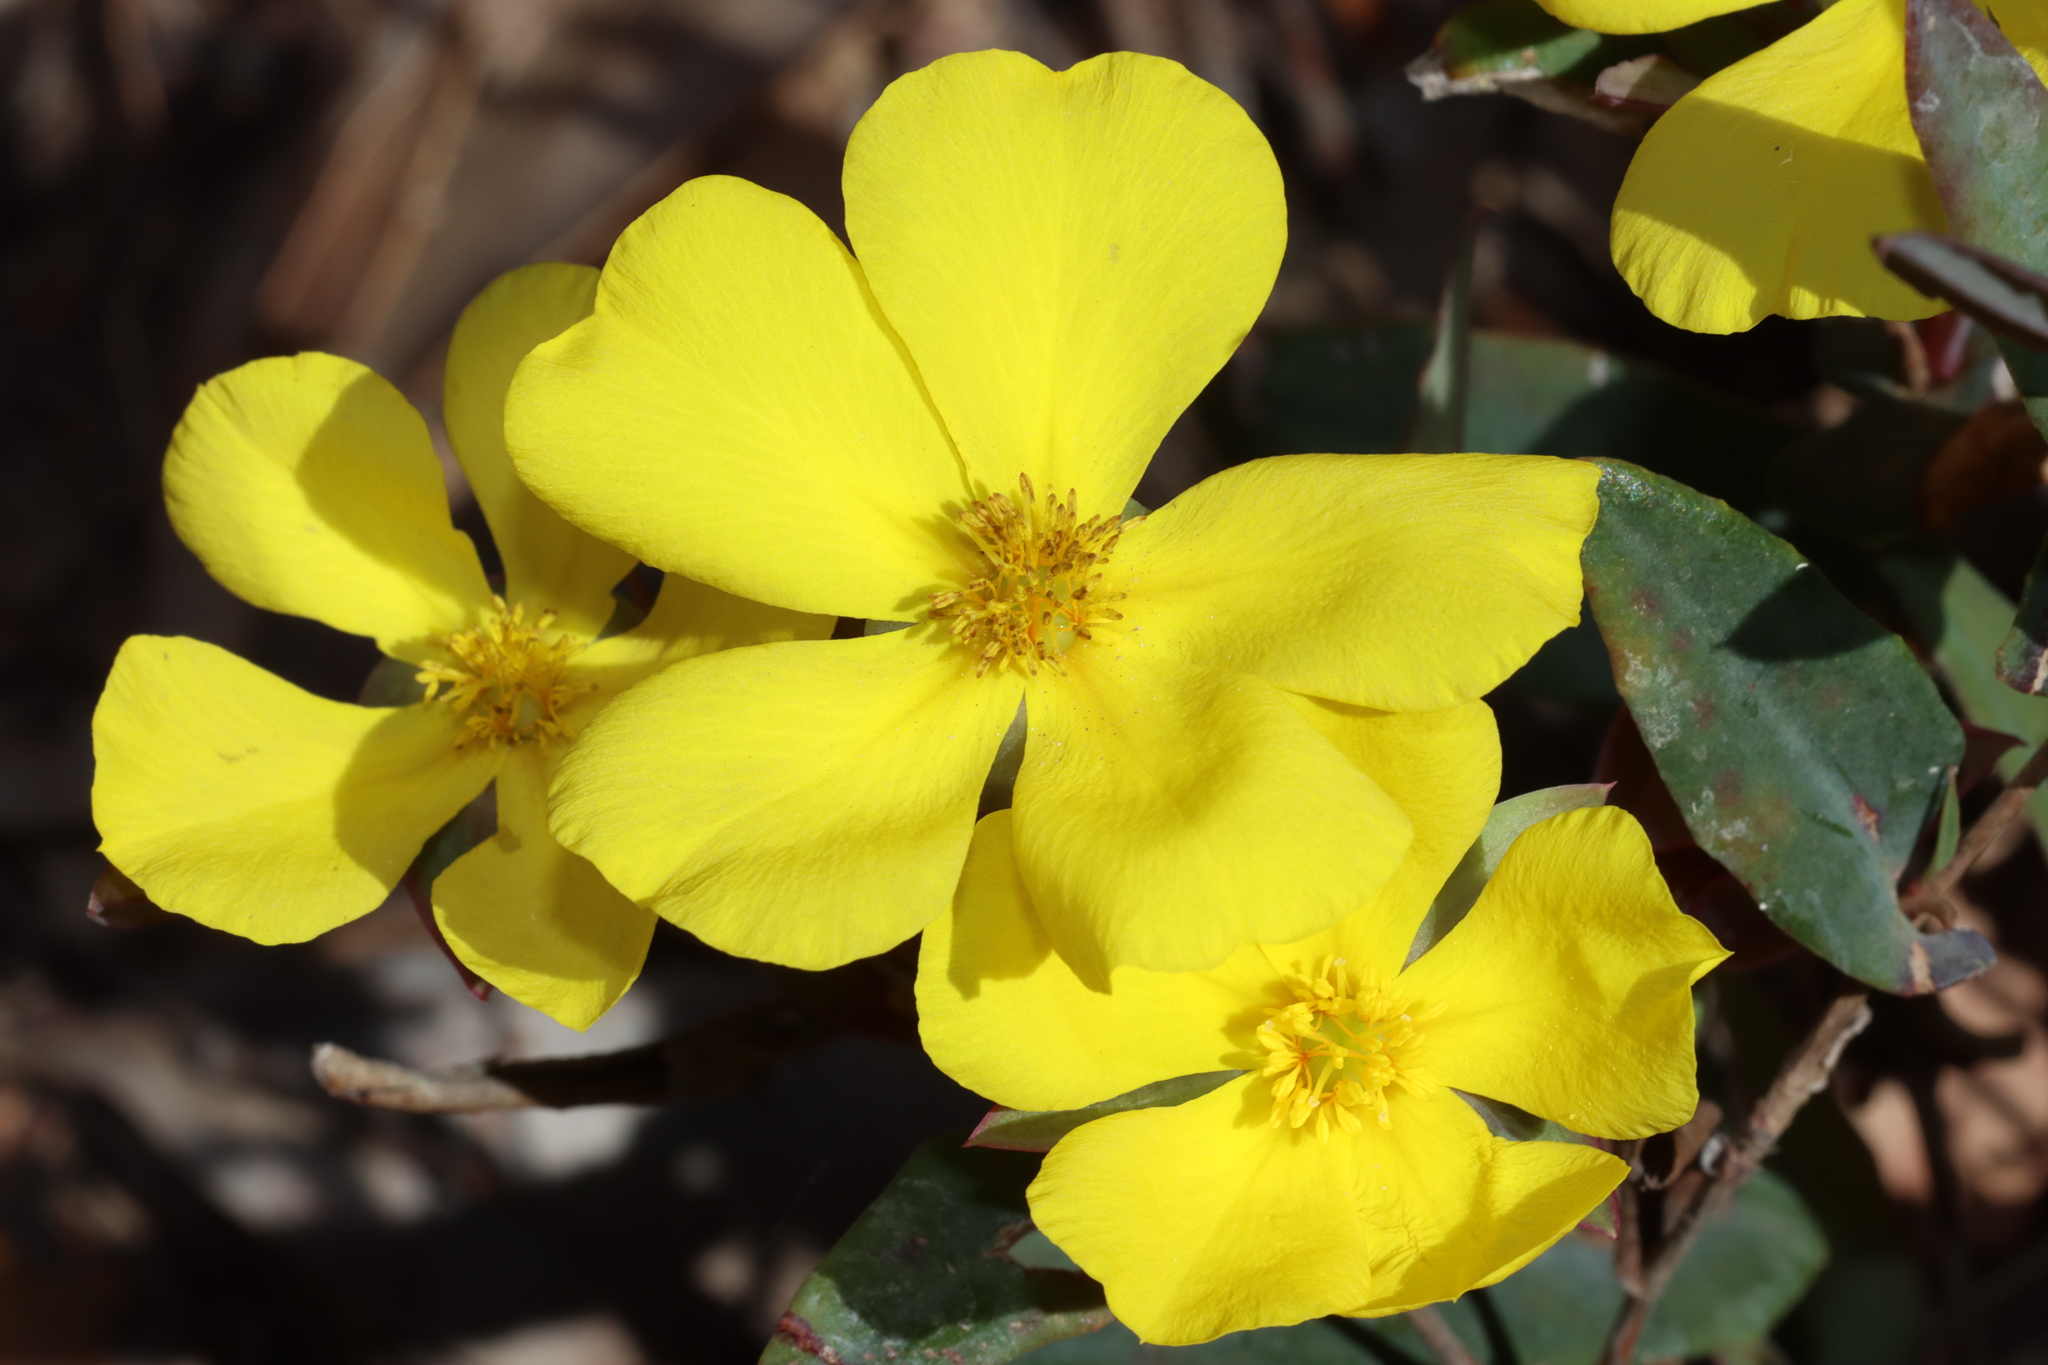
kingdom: Plantae
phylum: Tracheophyta
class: Magnoliopsida
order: Dilleniales
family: Dilleniaceae
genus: Hibbertia
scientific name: Hibbertia cunninghamii
